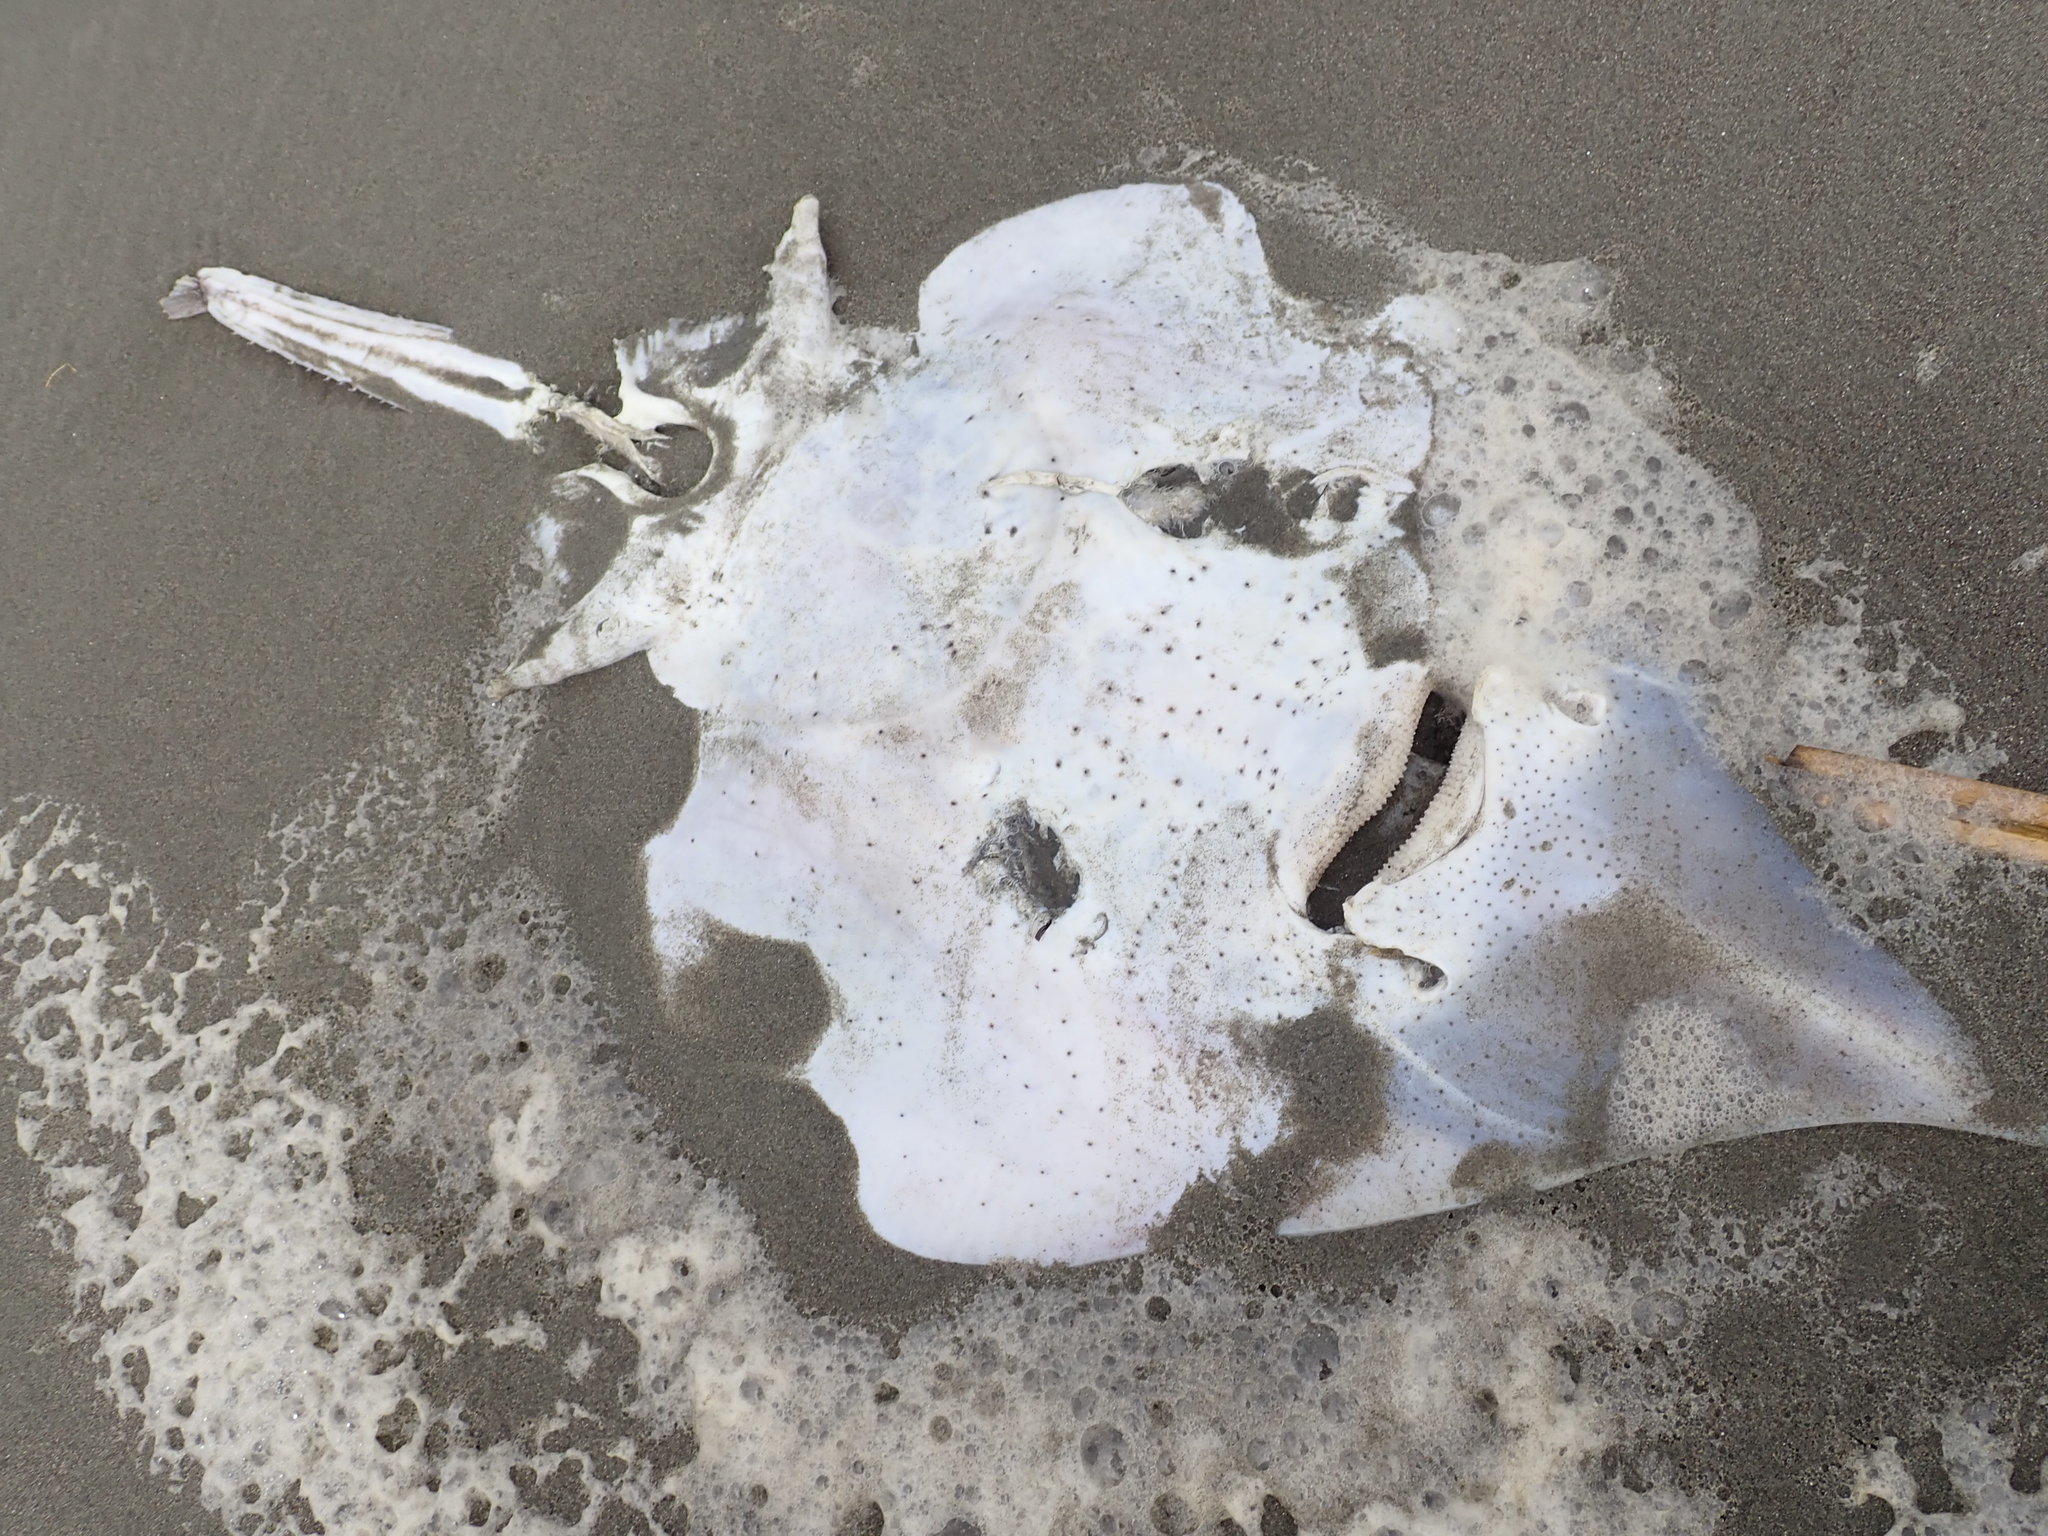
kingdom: Animalia
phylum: Chordata
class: Elasmobranchii
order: Rajiformes
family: Rajidae
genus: Zearaja
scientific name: Zearaja nasuta
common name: New zealand rough skate
